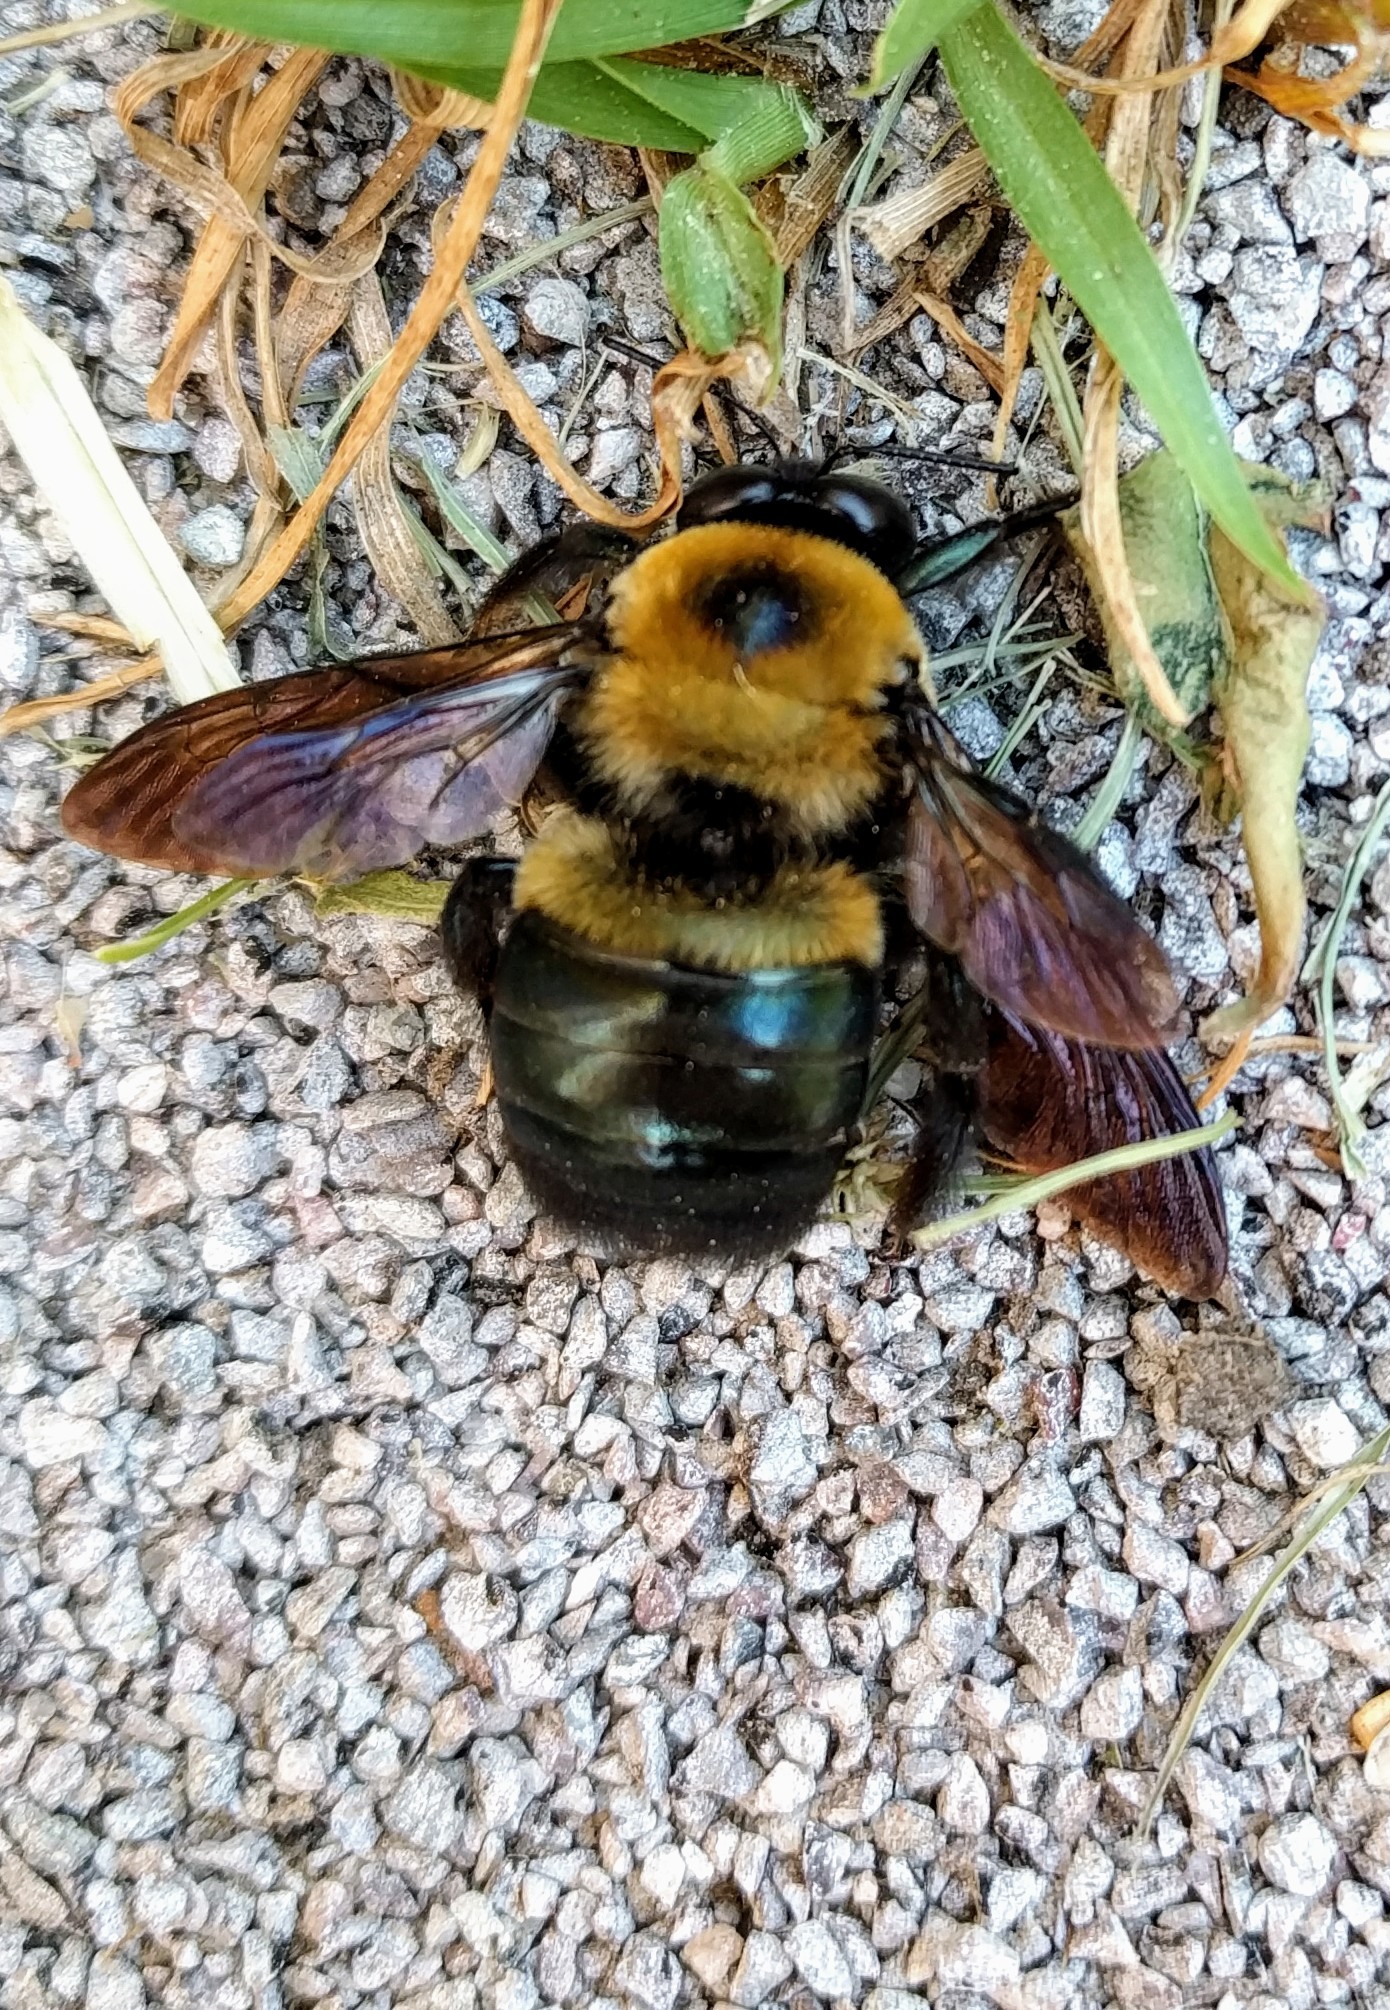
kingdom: Animalia
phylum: Arthropoda
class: Insecta
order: Hymenoptera
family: Apidae
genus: Xylocopa
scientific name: Xylocopa virginica
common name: Carpenter bee
